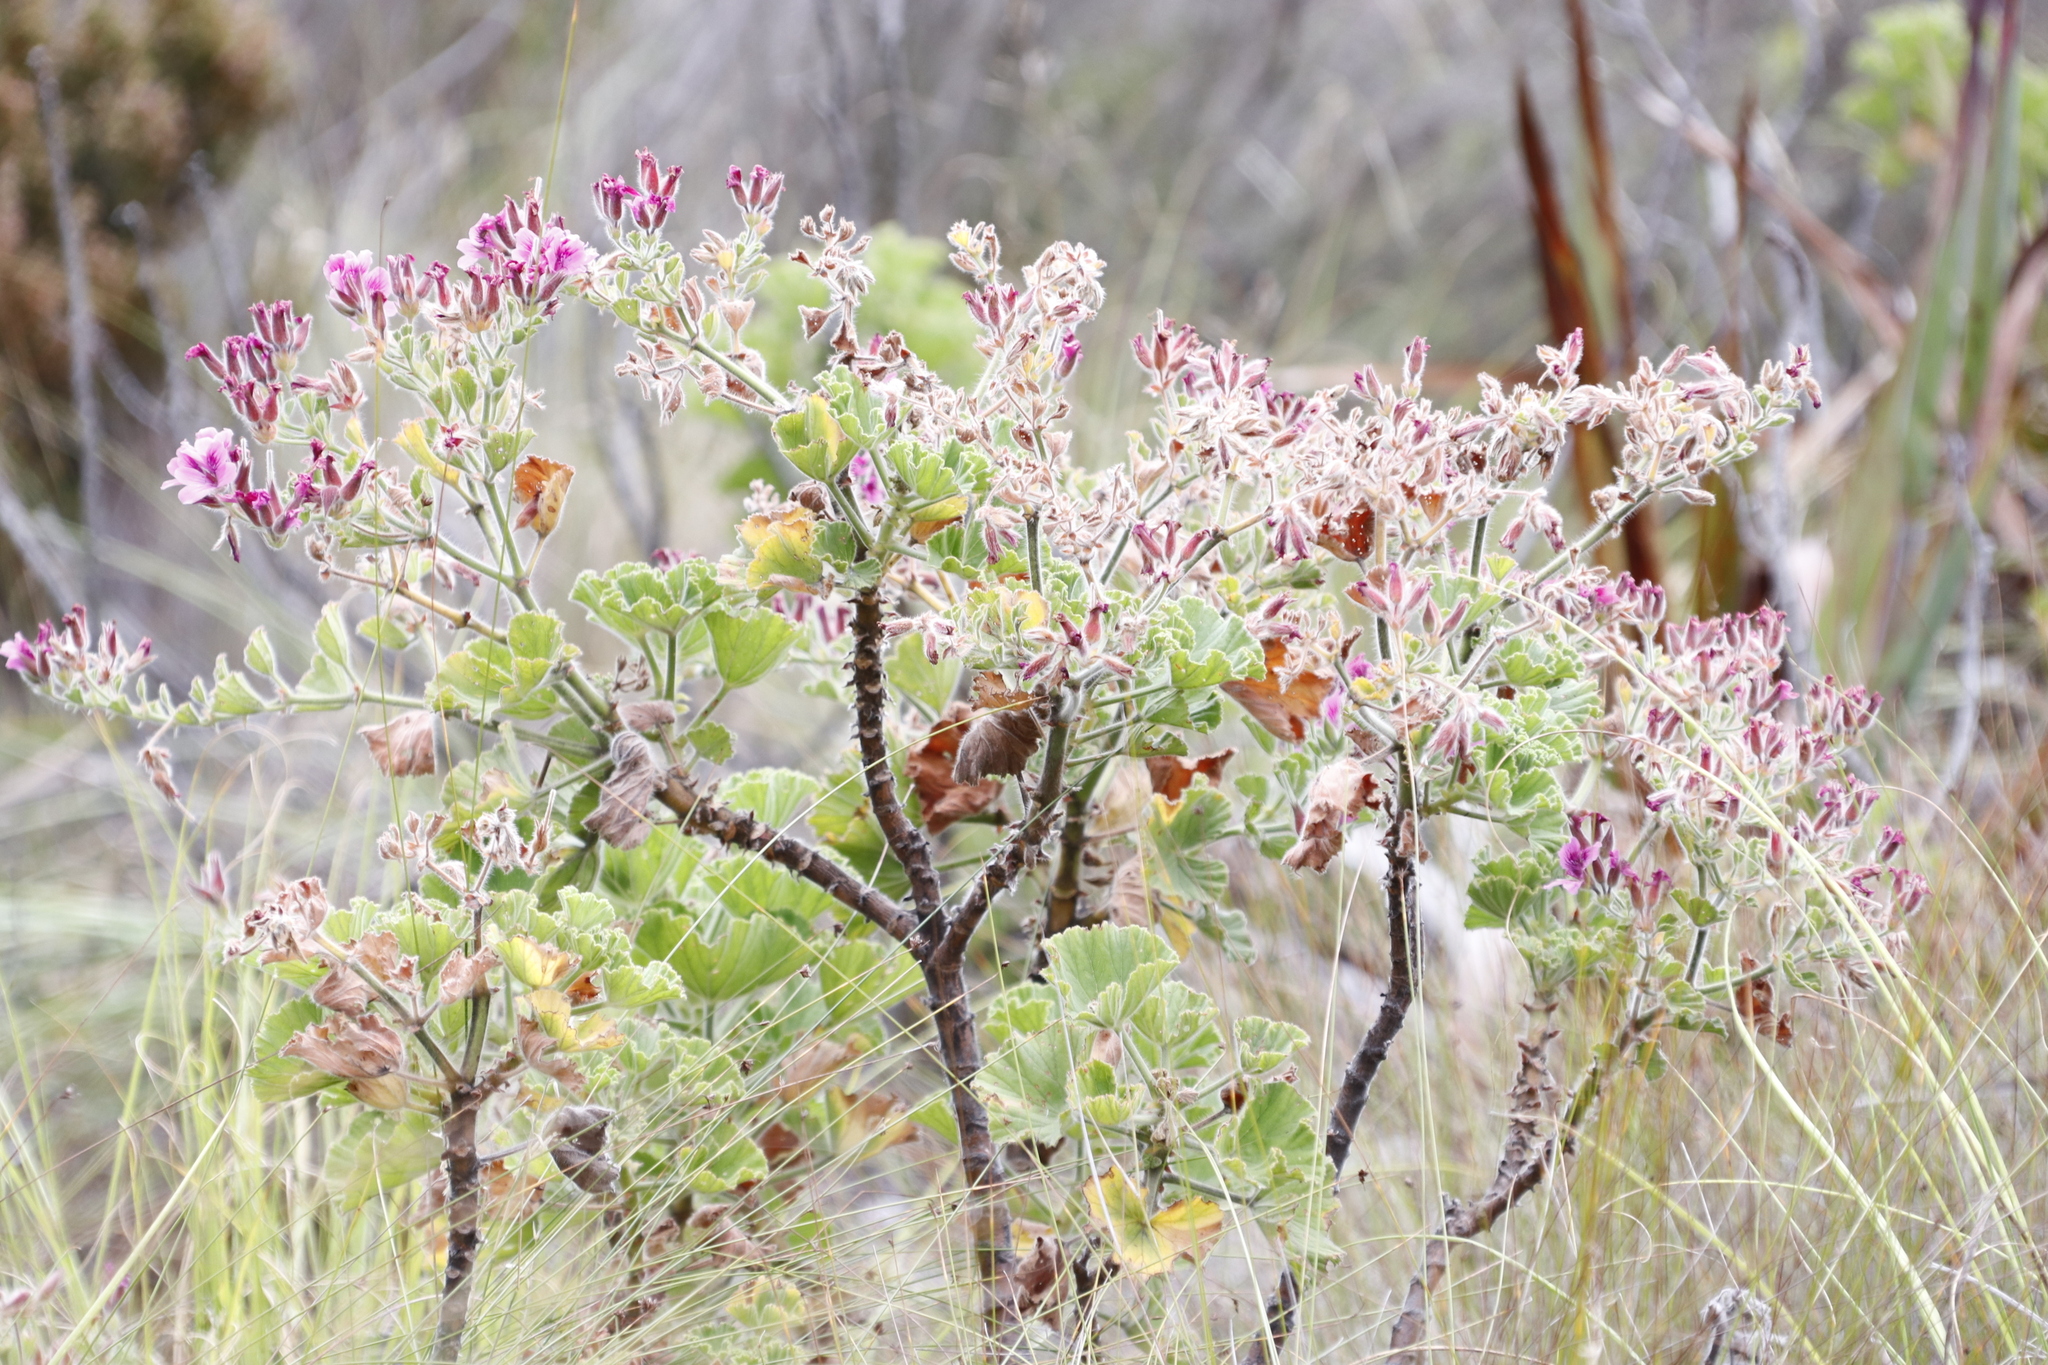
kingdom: Plantae
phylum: Tracheophyta
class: Magnoliopsida
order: Geraniales
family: Geraniaceae
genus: Pelargonium
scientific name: Pelargonium cucullatum
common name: Tree pelargonium
